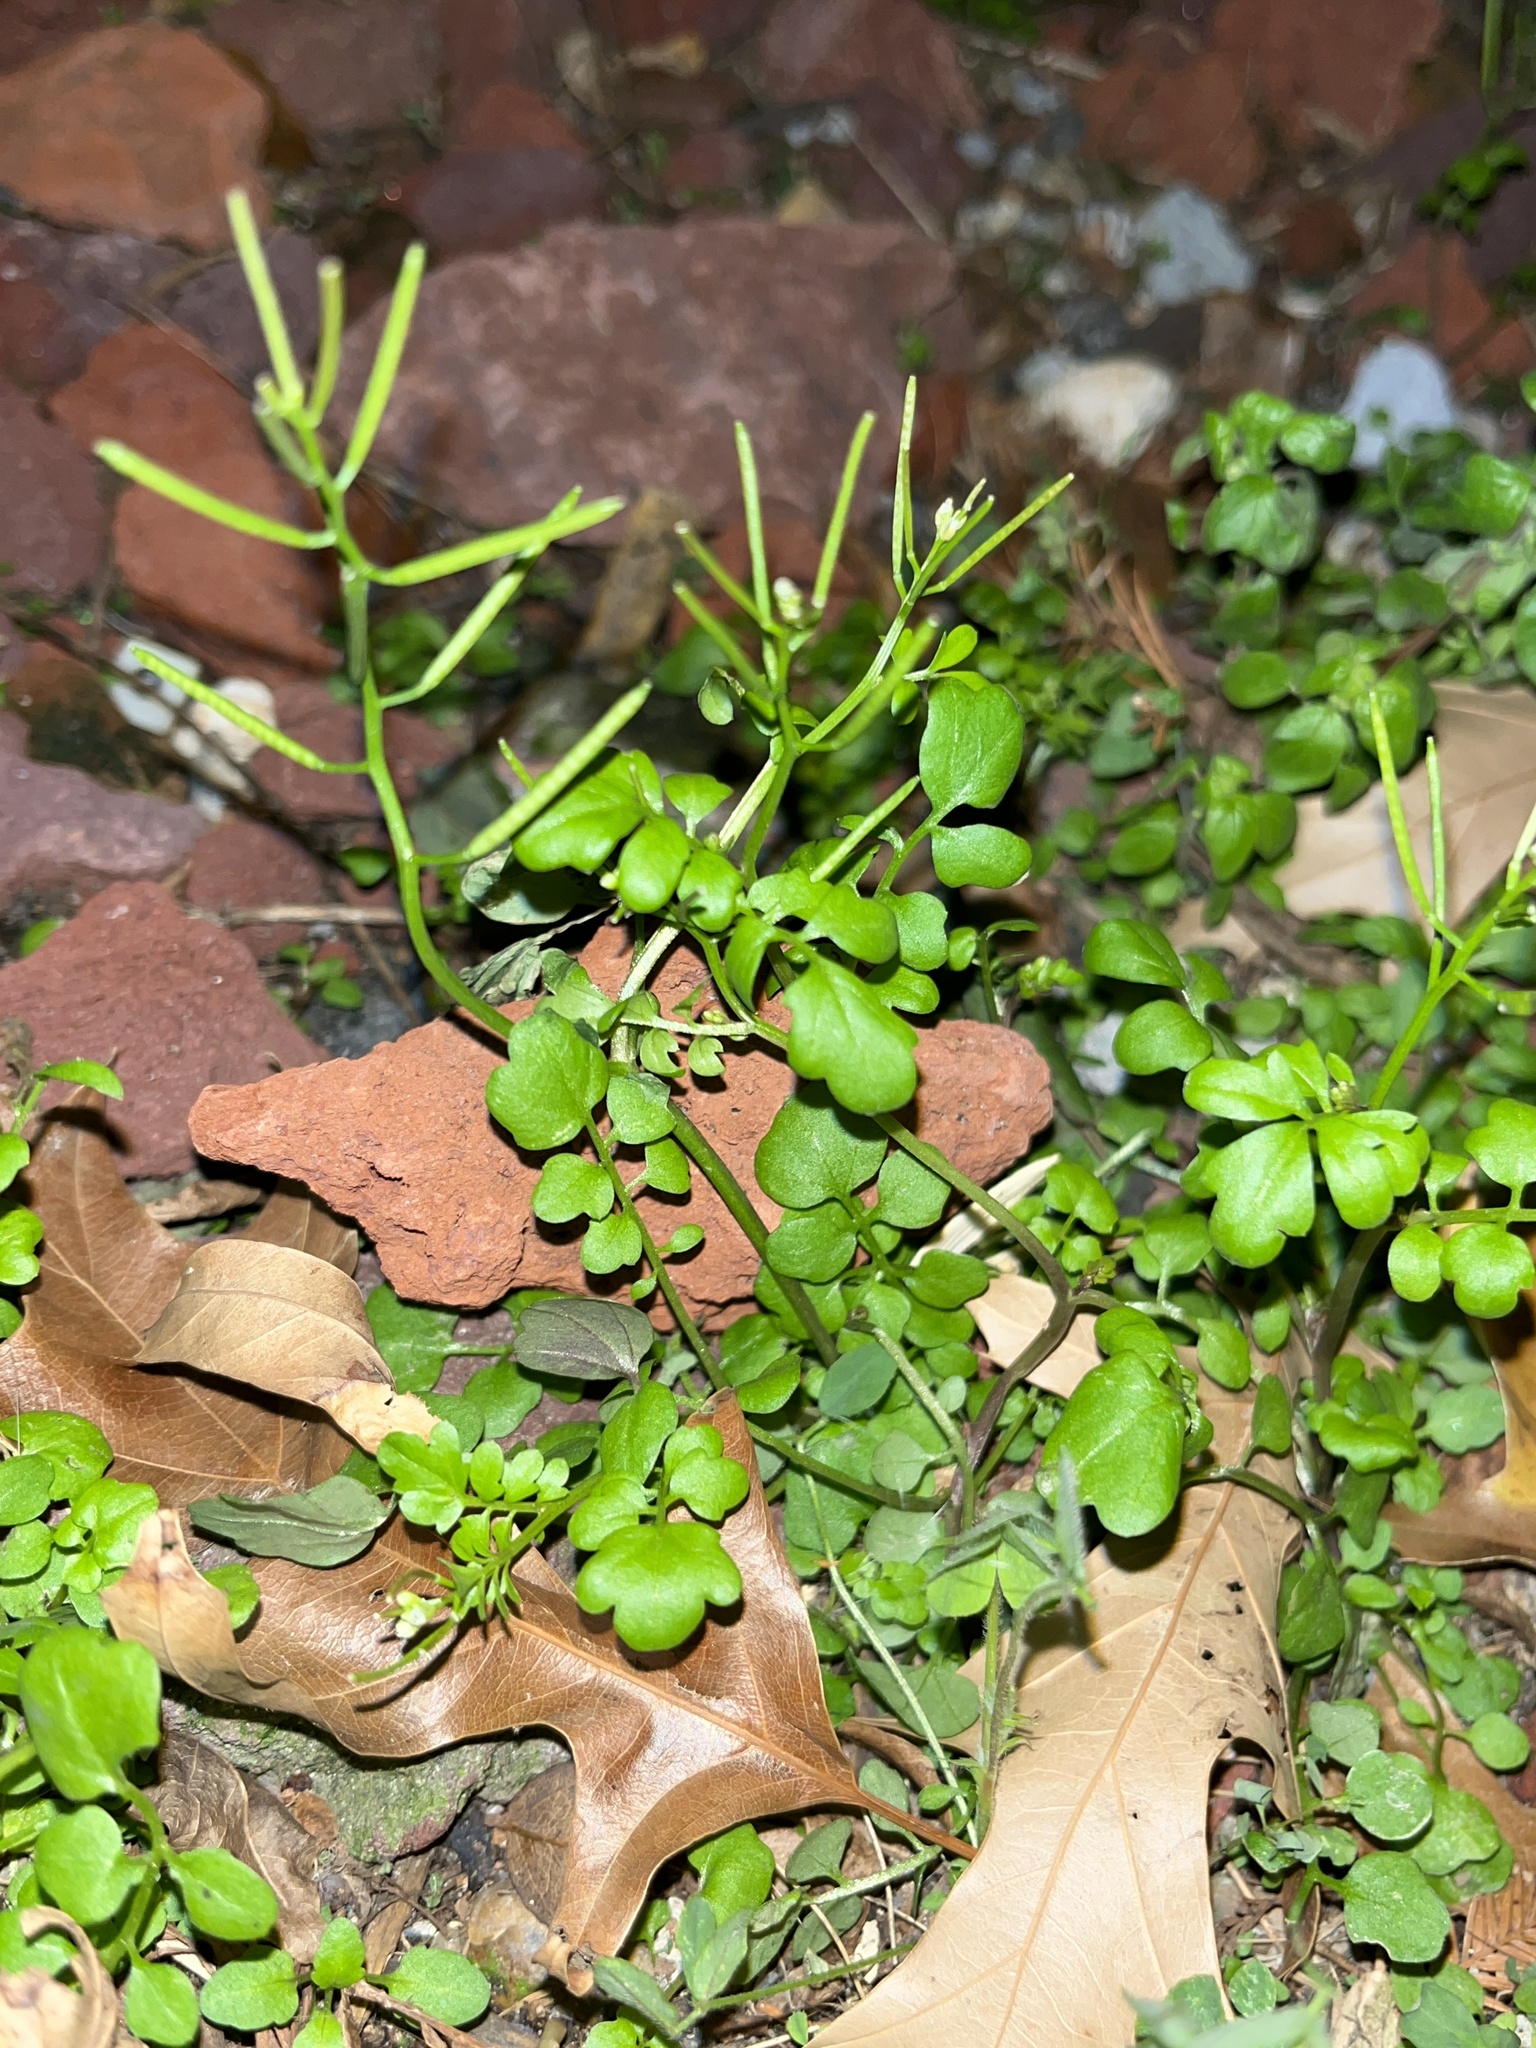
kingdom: Plantae
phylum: Tracheophyta
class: Magnoliopsida
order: Brassicales
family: Brassicaceae
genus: Cardamine
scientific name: Cardamine occulta
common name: Asian wavy bittercress
